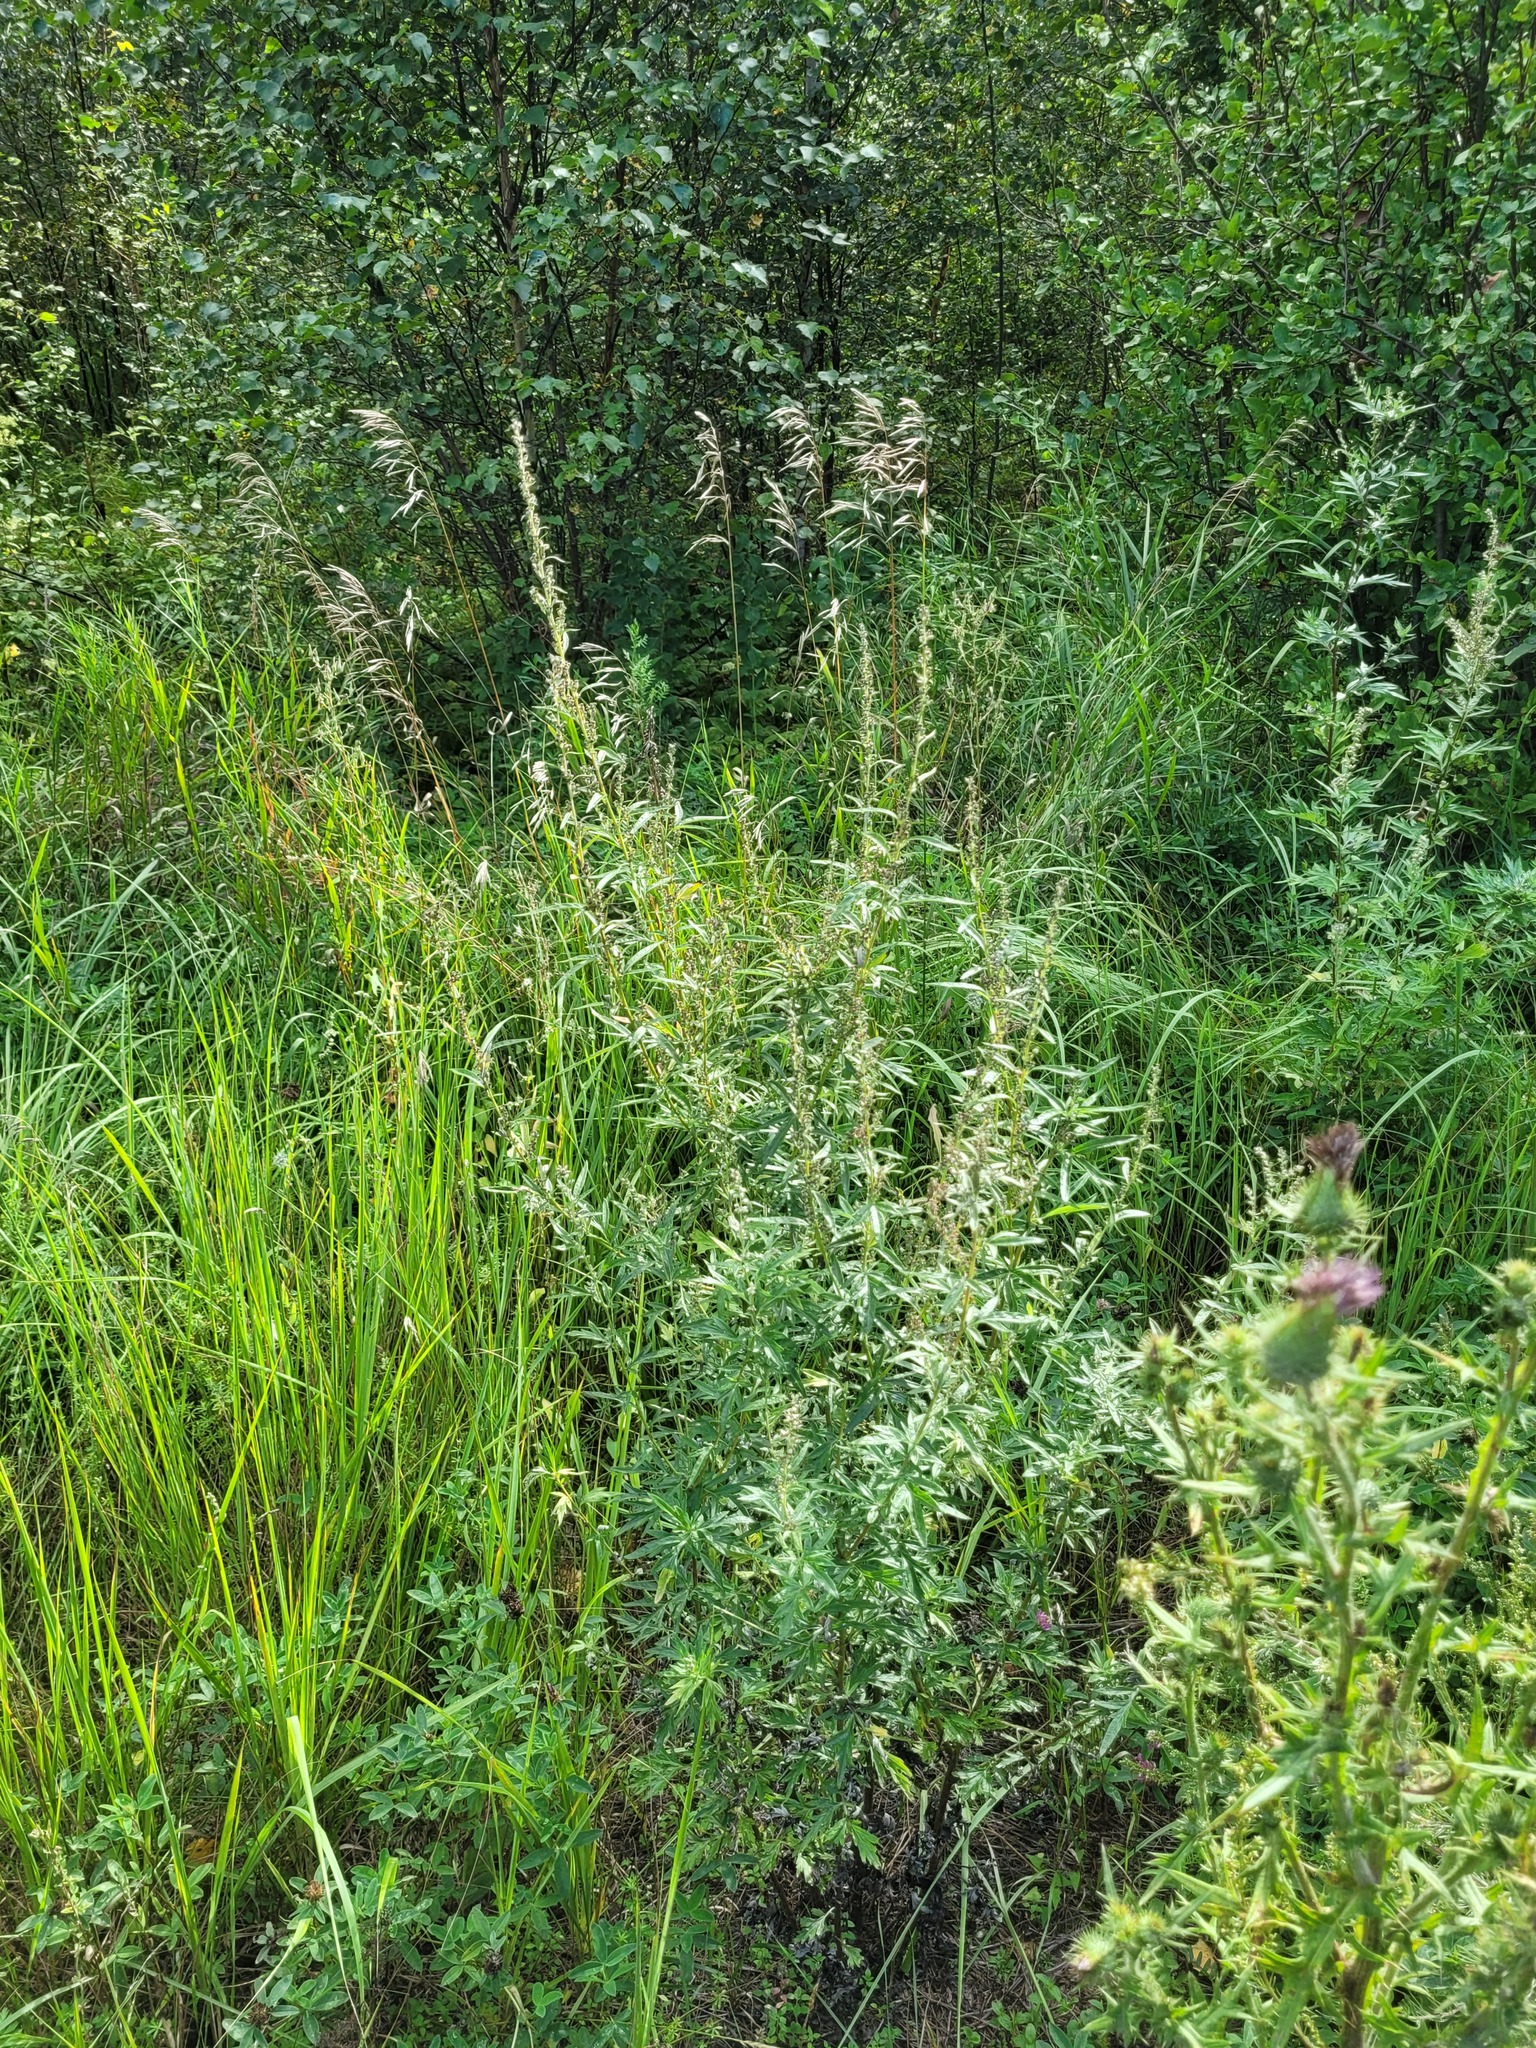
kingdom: Plantae
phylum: Tracheophyta
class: Magnoliopsida
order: Asterales
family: Asteraceae
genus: Artemisia
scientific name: Artemisia vulgaris
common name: Mugwort
